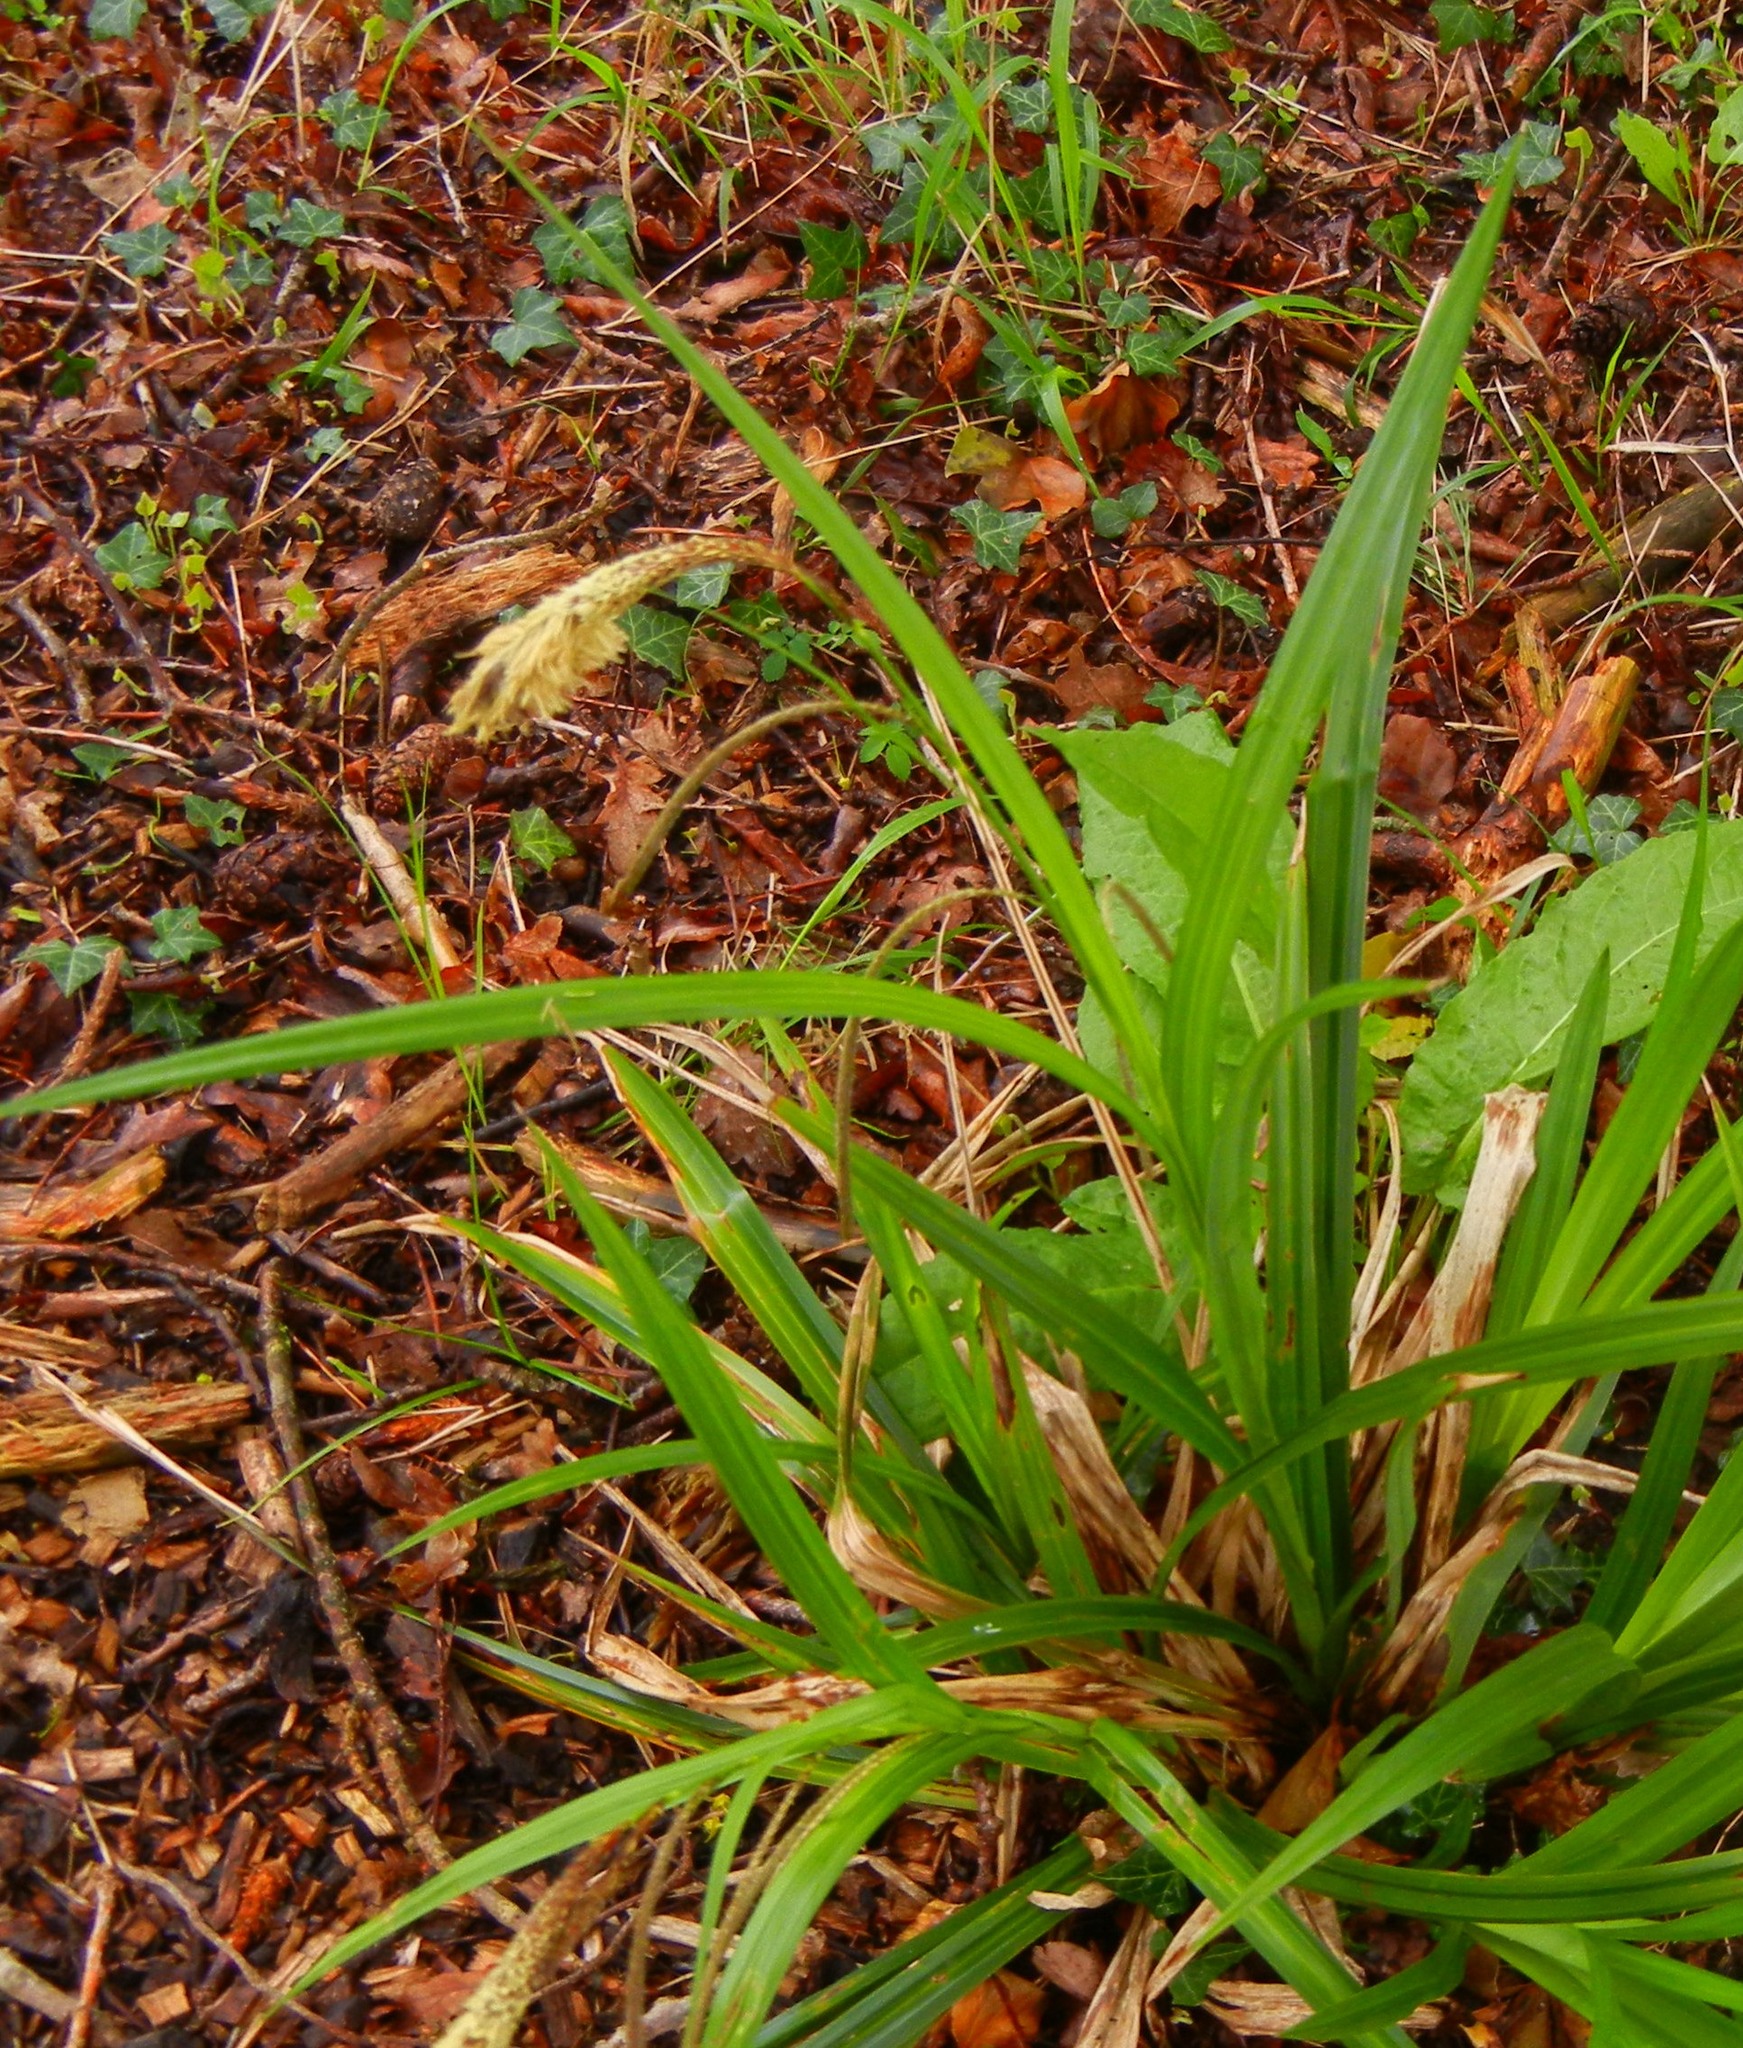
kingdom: Plantae
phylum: Tracheophyta
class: Liliopsida
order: Poales
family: Cyperaceae
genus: Carex
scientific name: Carex pendula
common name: Pendulous sedge
